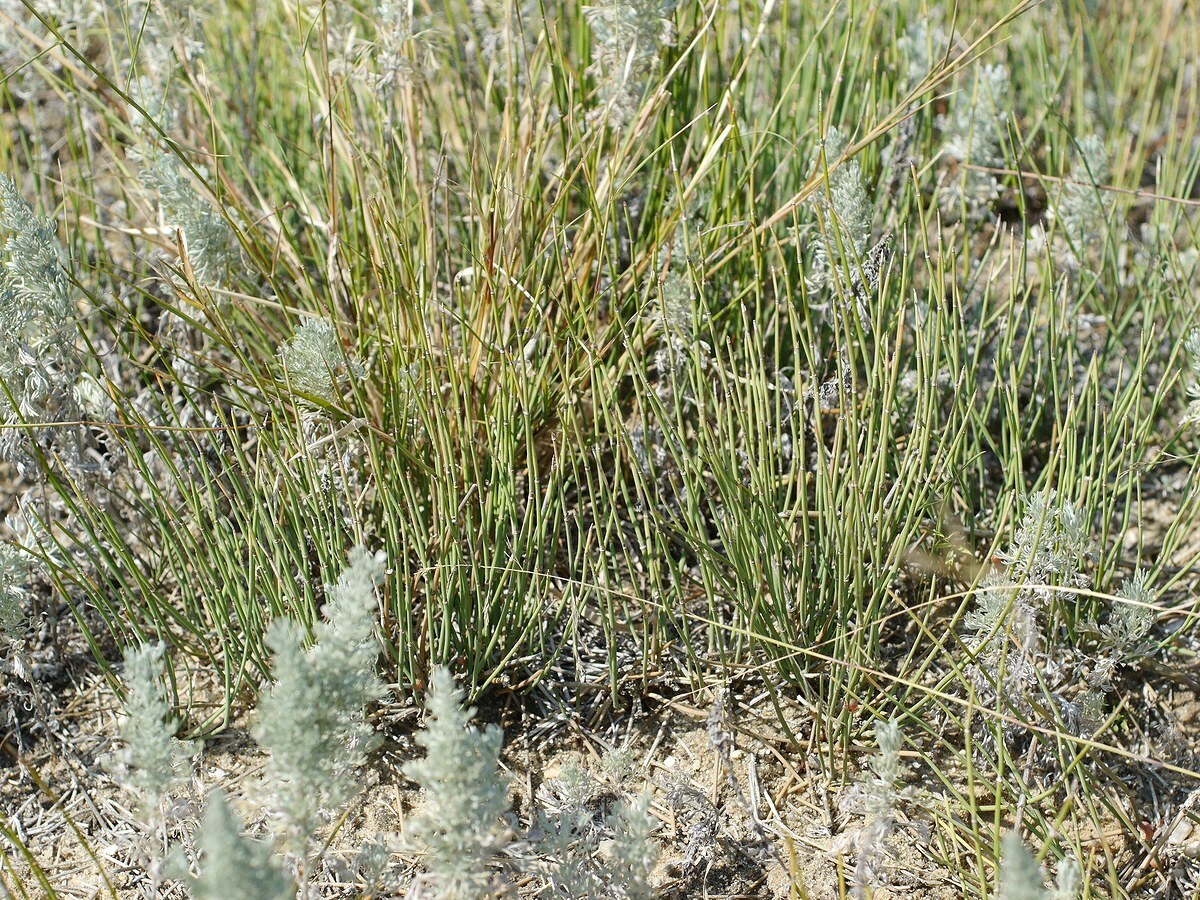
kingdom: Plantae
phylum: Tracheophyta
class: Gnetopsida
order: Ephedrales
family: Ephedraceae
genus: Ephedra
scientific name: Ephedra distachya
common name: Sea grape
